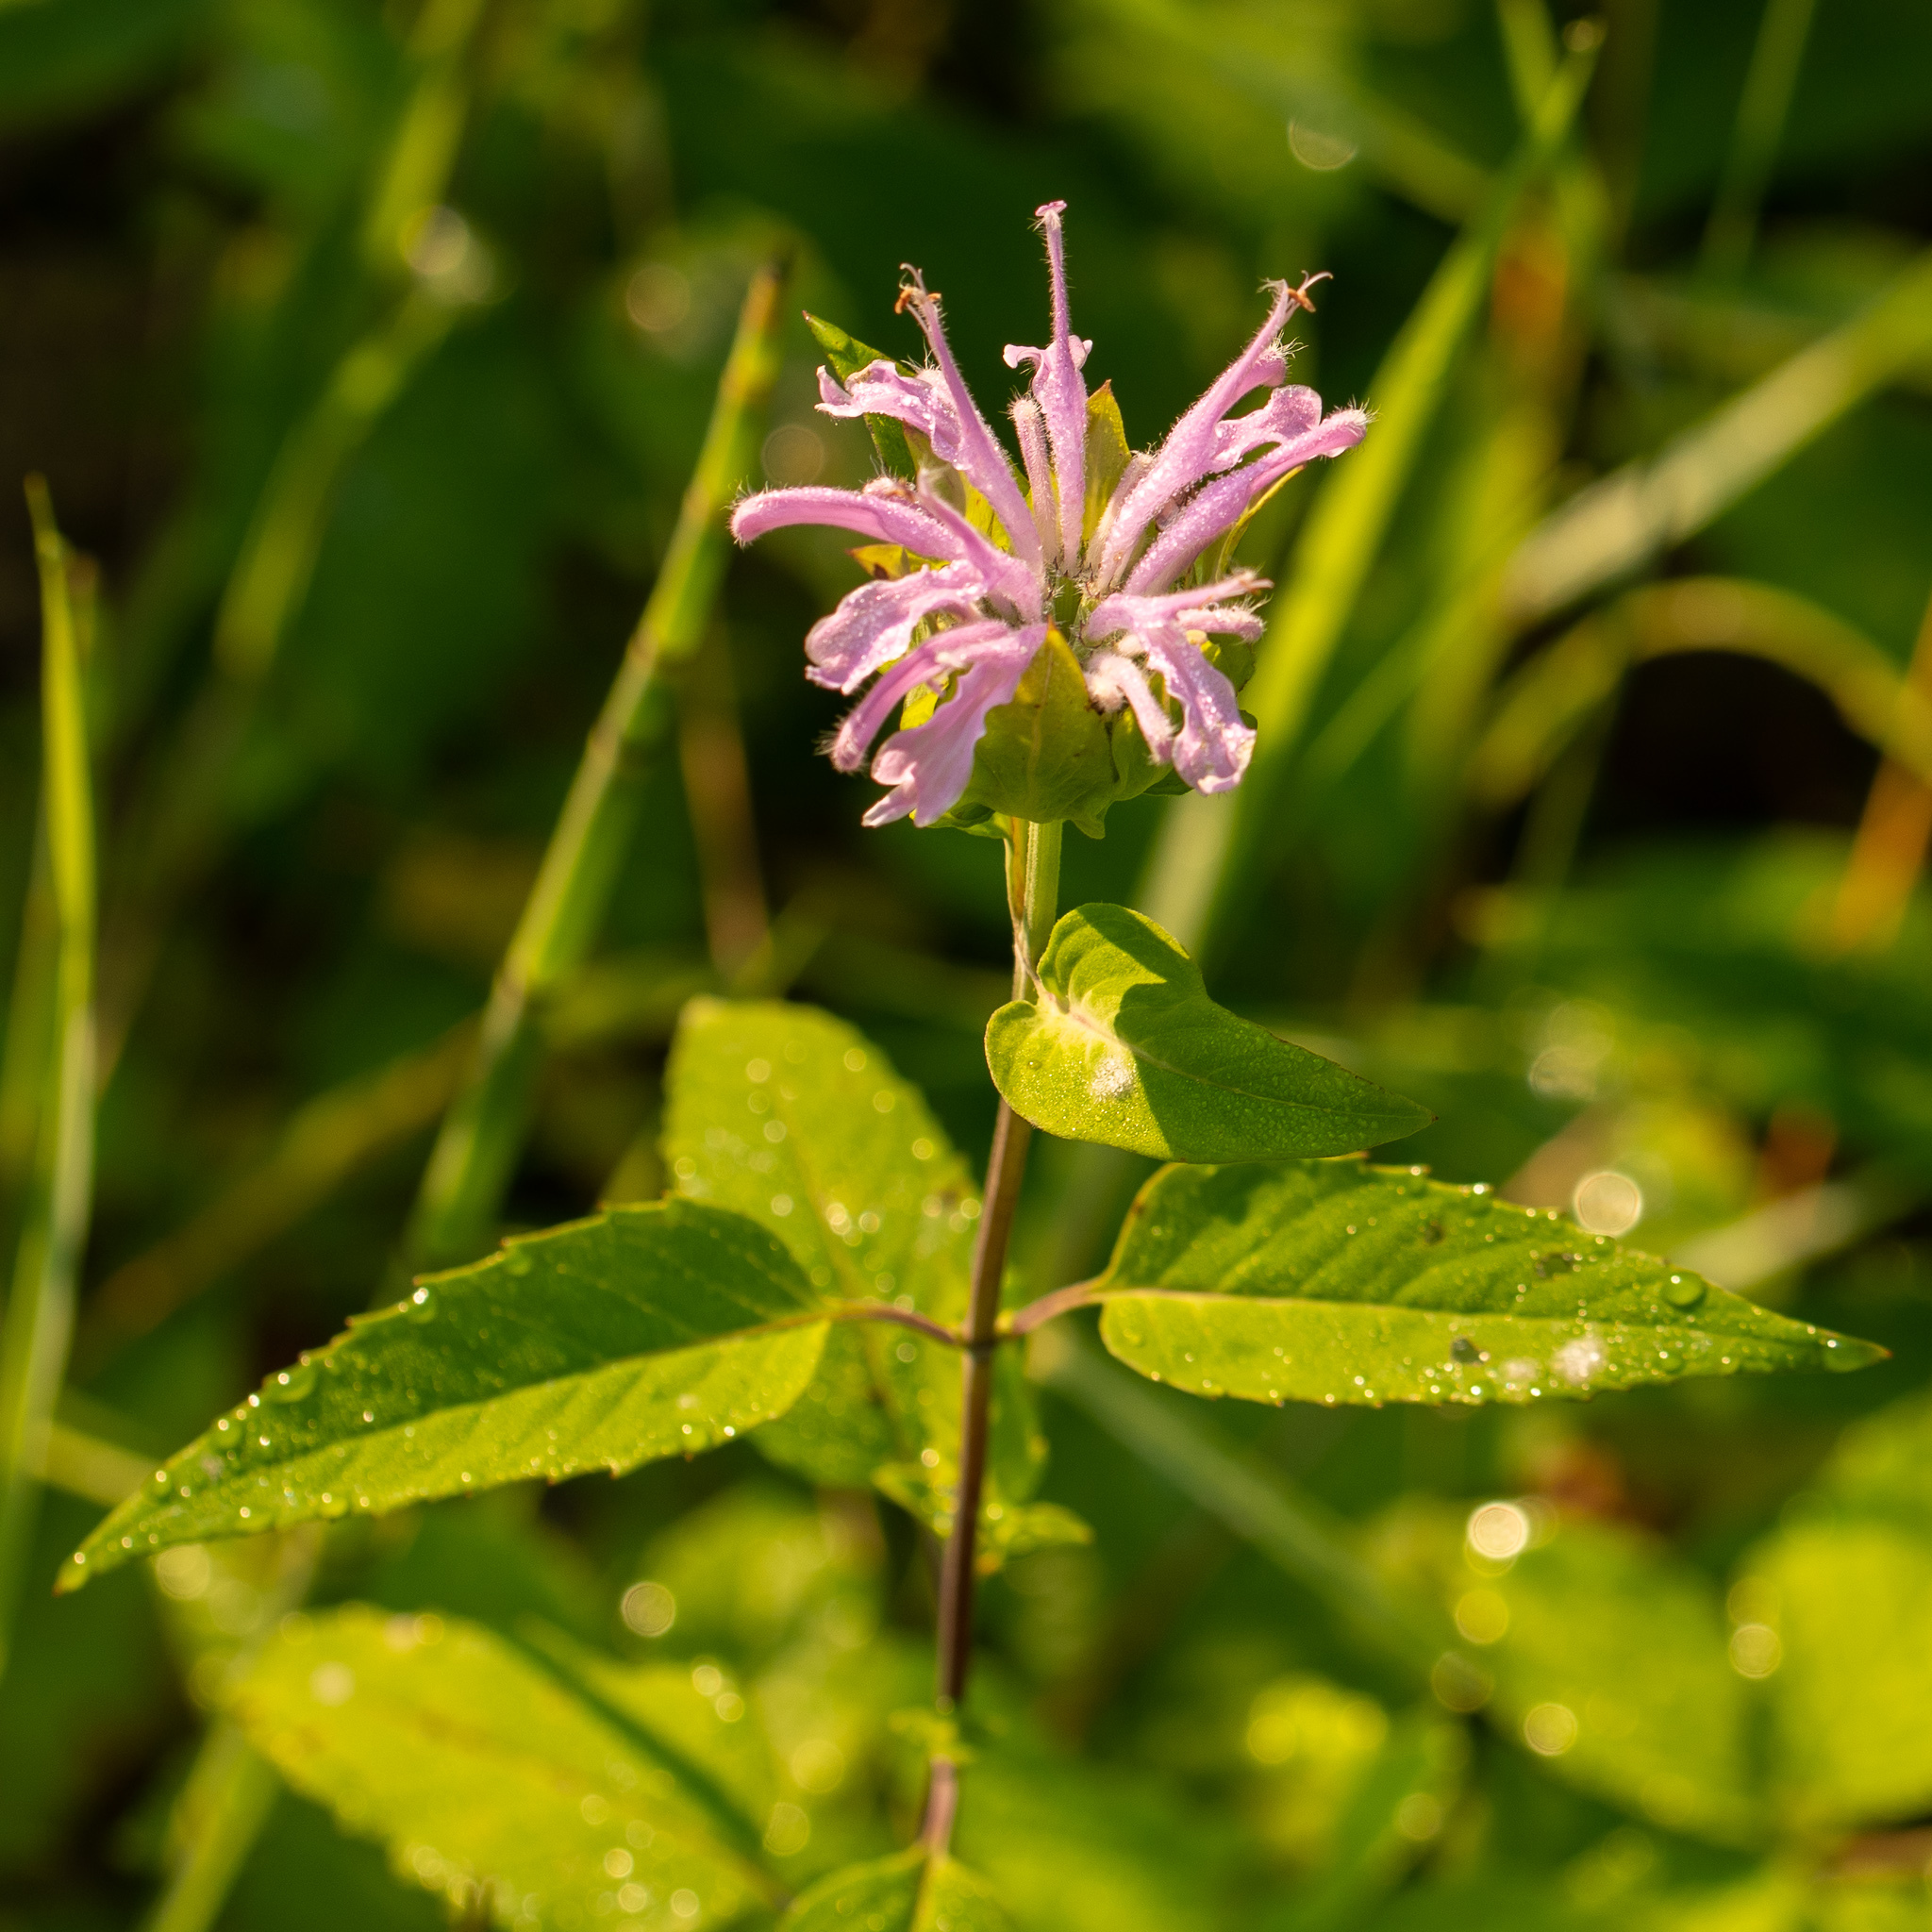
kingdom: Plantae
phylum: Tracheophyta
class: Magnoliopsida
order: Lamiales
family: Lamiaceae
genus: Monarda
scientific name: Monarda fistulosa
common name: Purple beebalm
